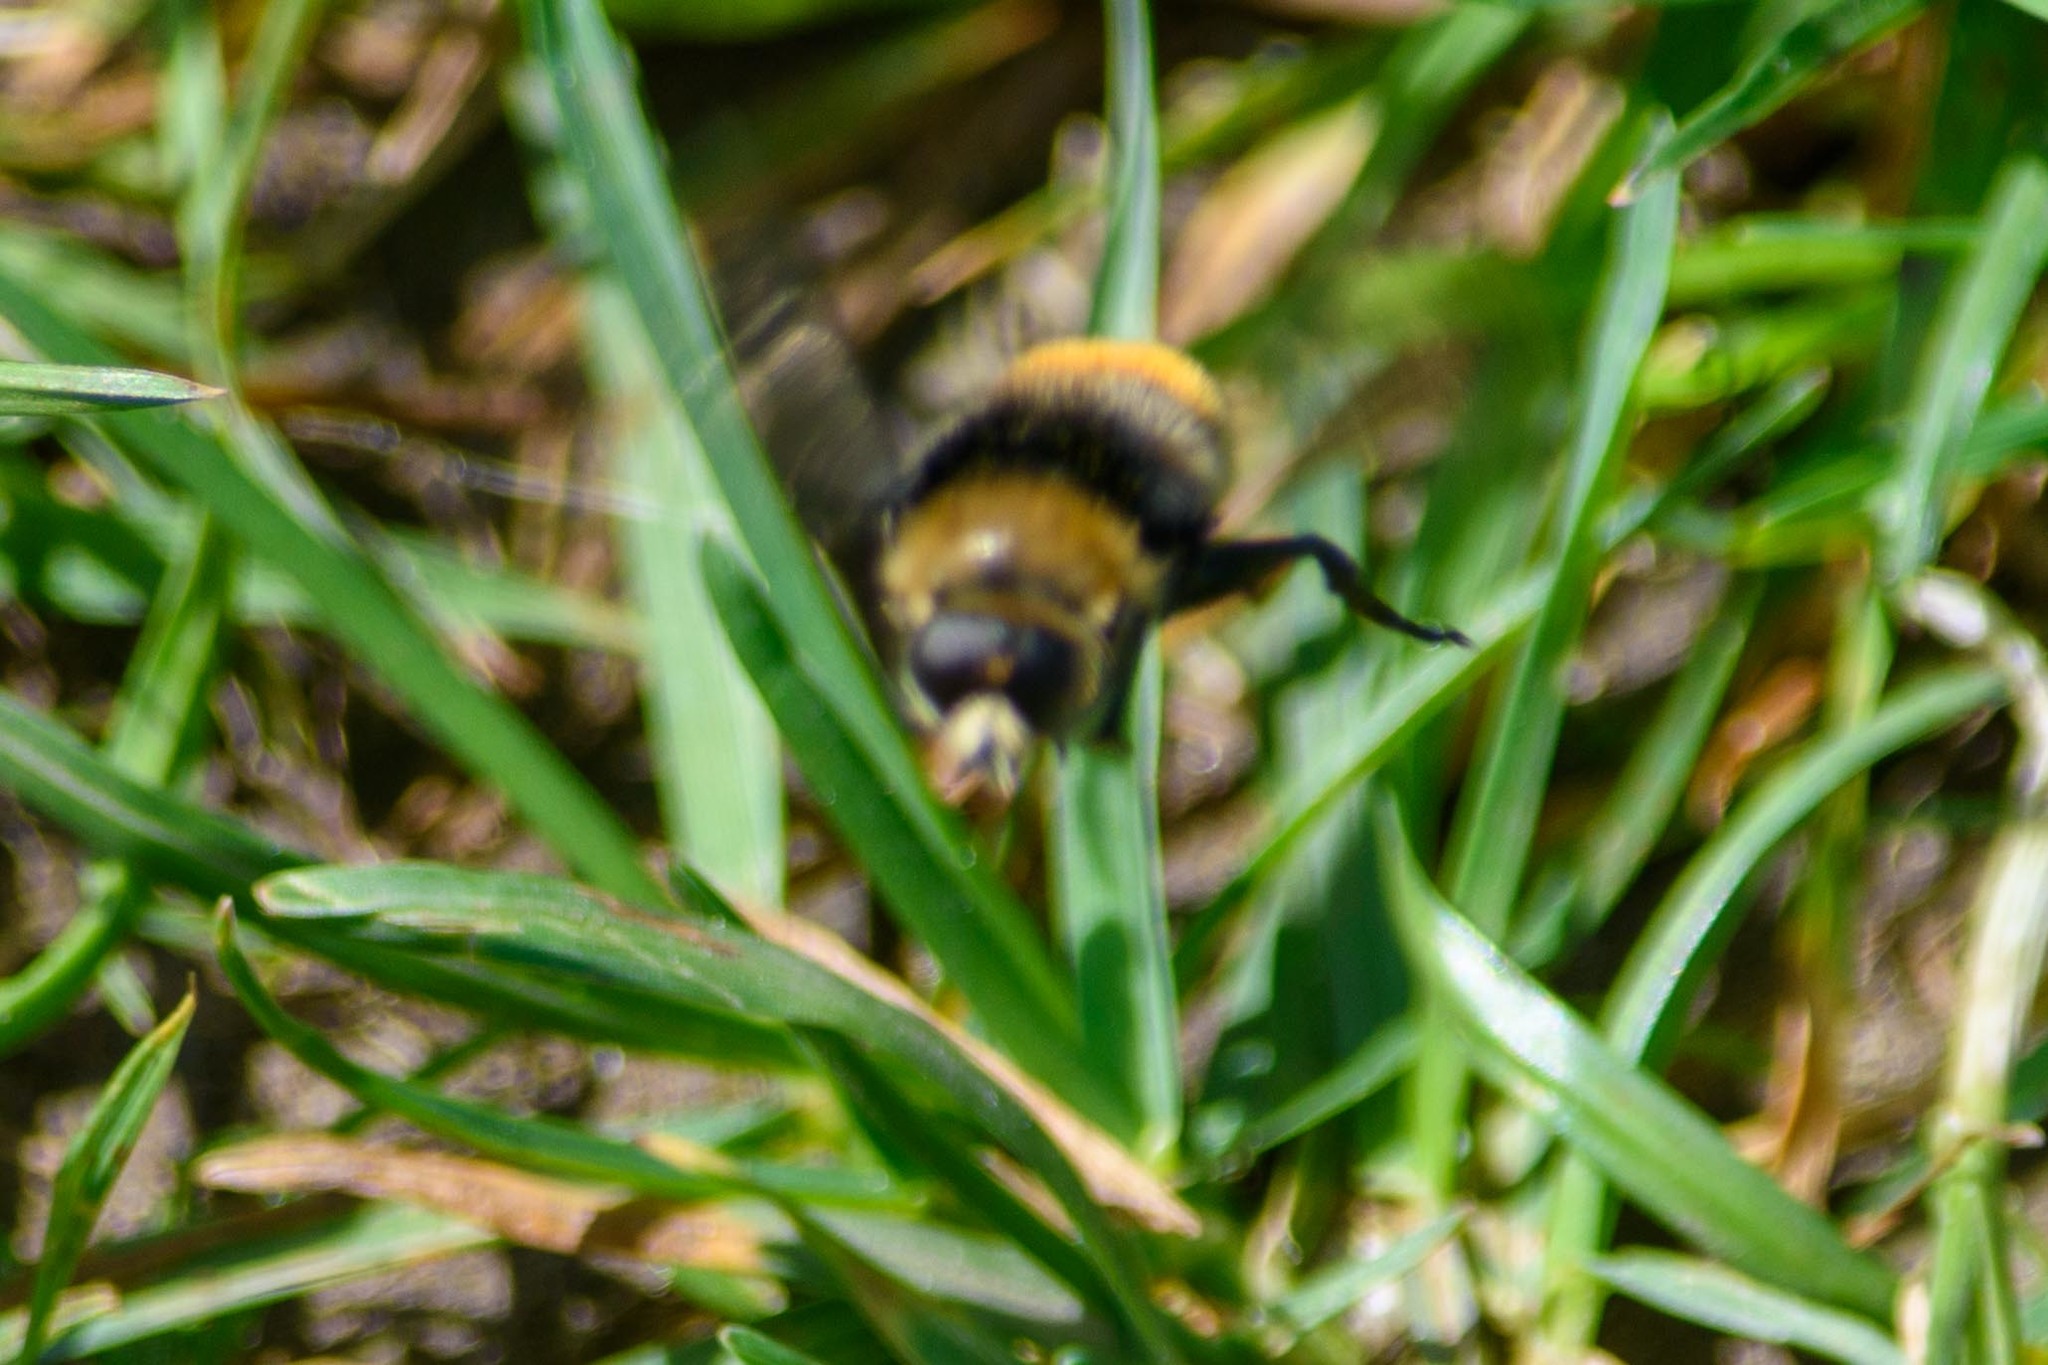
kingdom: Animalia
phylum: Arthropoda
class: Insecta
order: Diptera
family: Syrphidae
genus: Merodon
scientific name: Merodon equestris
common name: Greater bulb-fly
